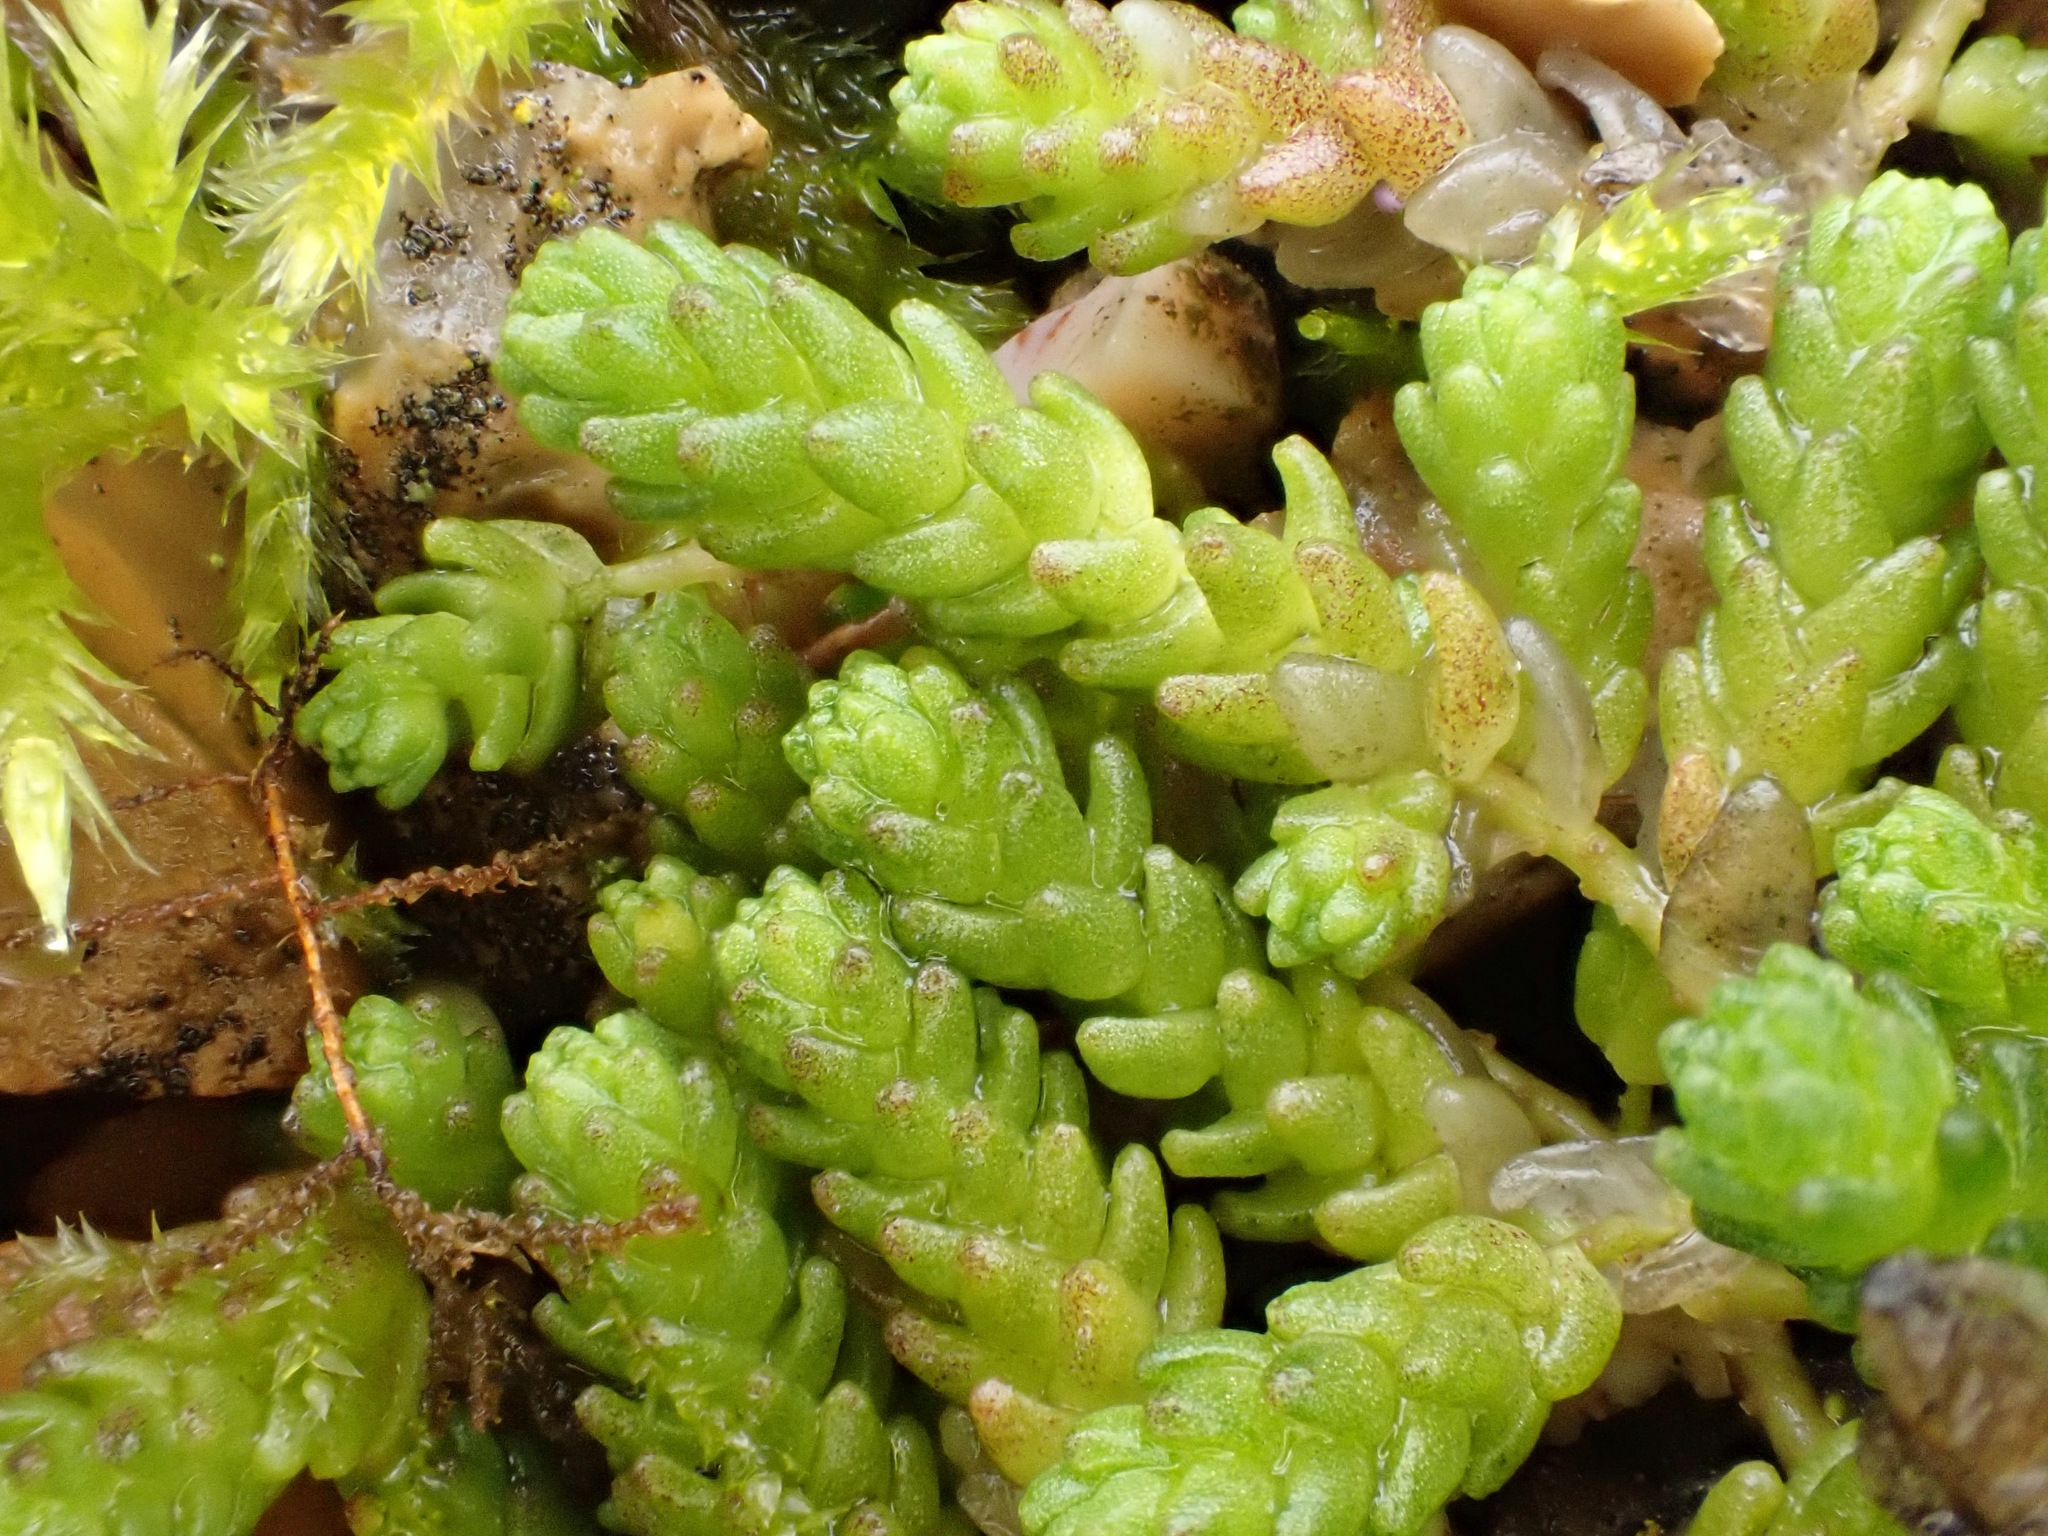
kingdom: Plantae
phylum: Tracheophyta
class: Magnoliopsida
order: Saxifragales
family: Crassulaceae
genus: Sedum
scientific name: Sedum acre
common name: Biting stonecrop
